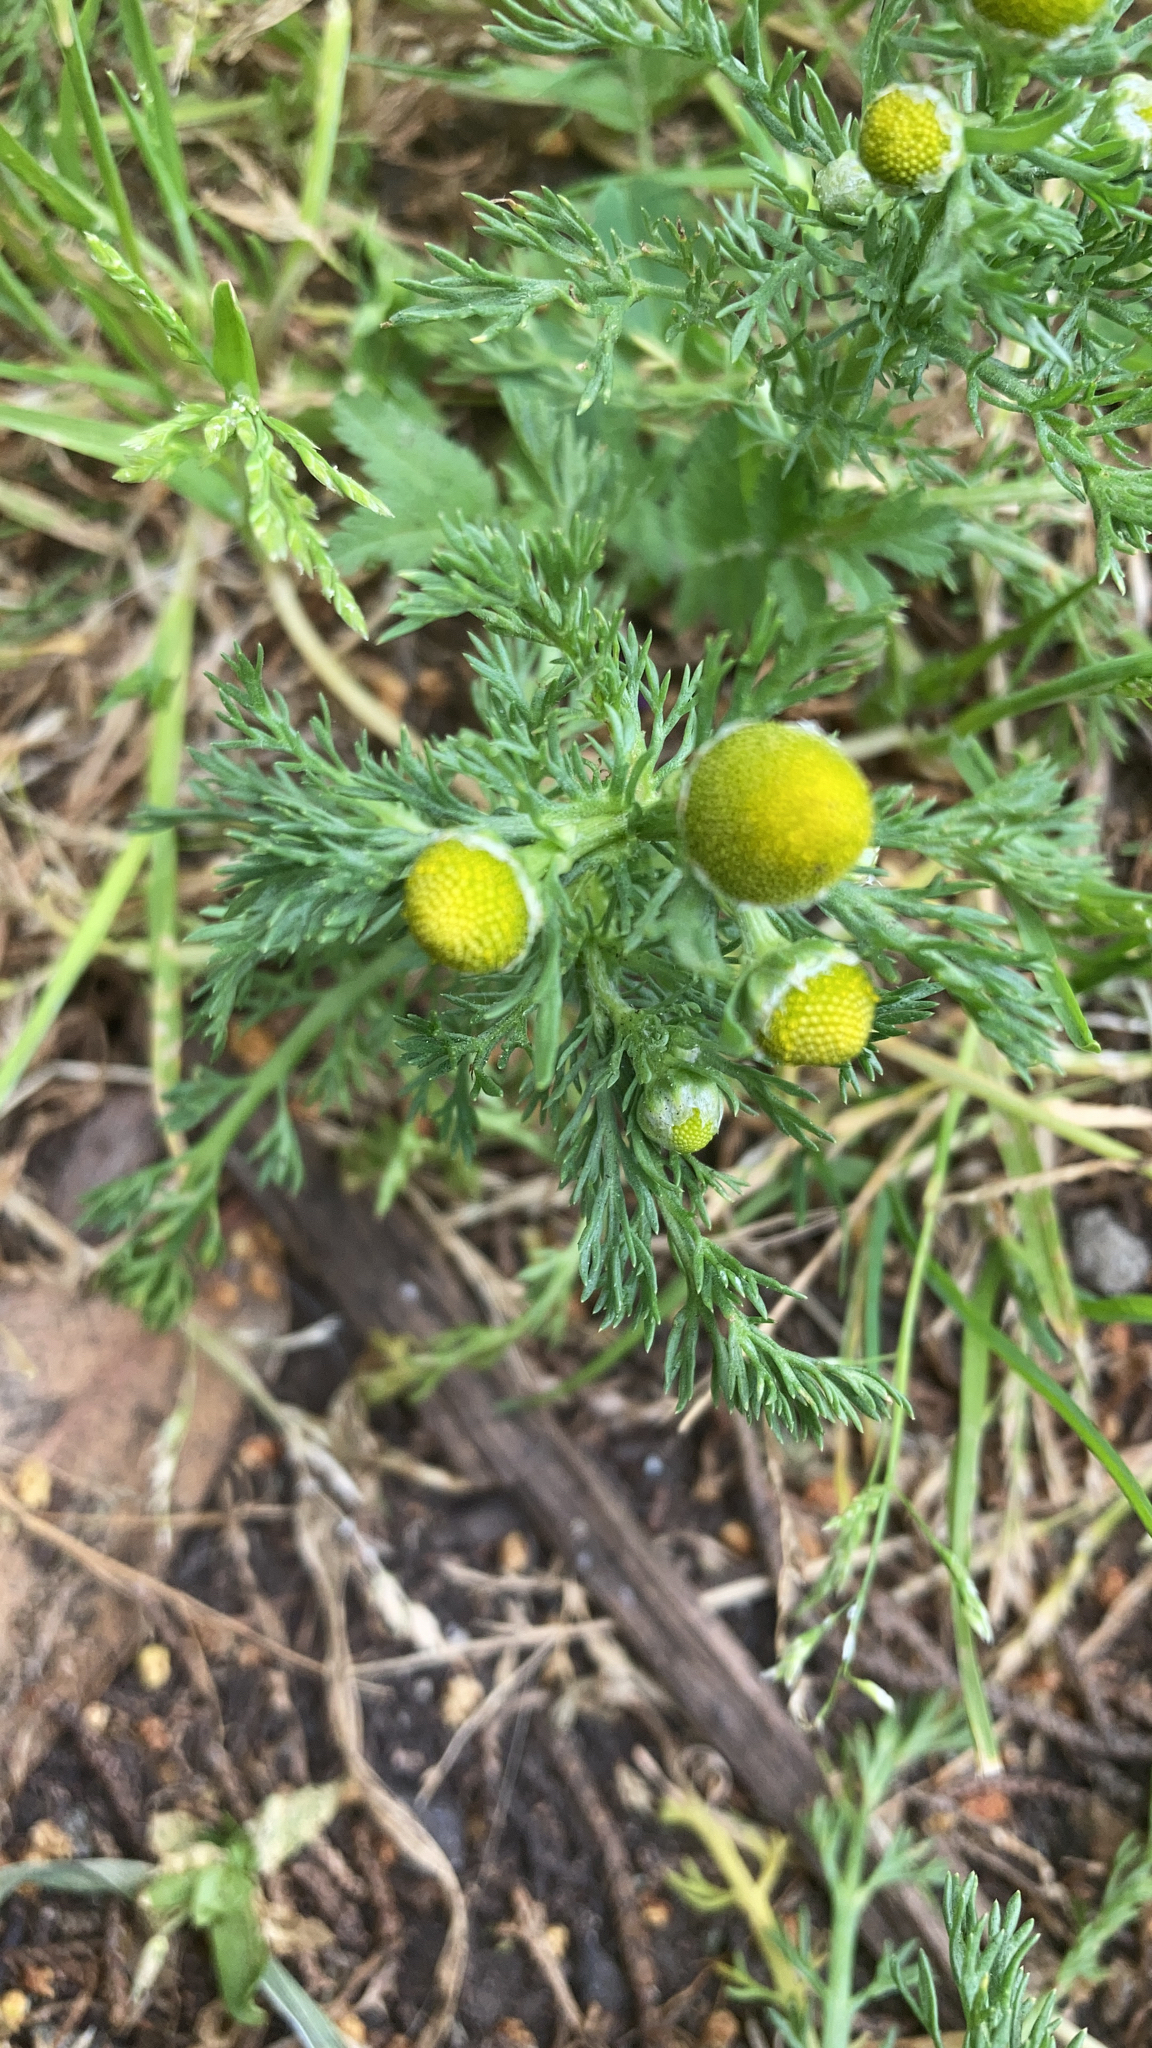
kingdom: Plantae
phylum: Tracheophyta
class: Magnoliopsida
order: Asterales
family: Asteraceae
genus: Matricaria
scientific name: Matricaria discoidea
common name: Disc mayweed
